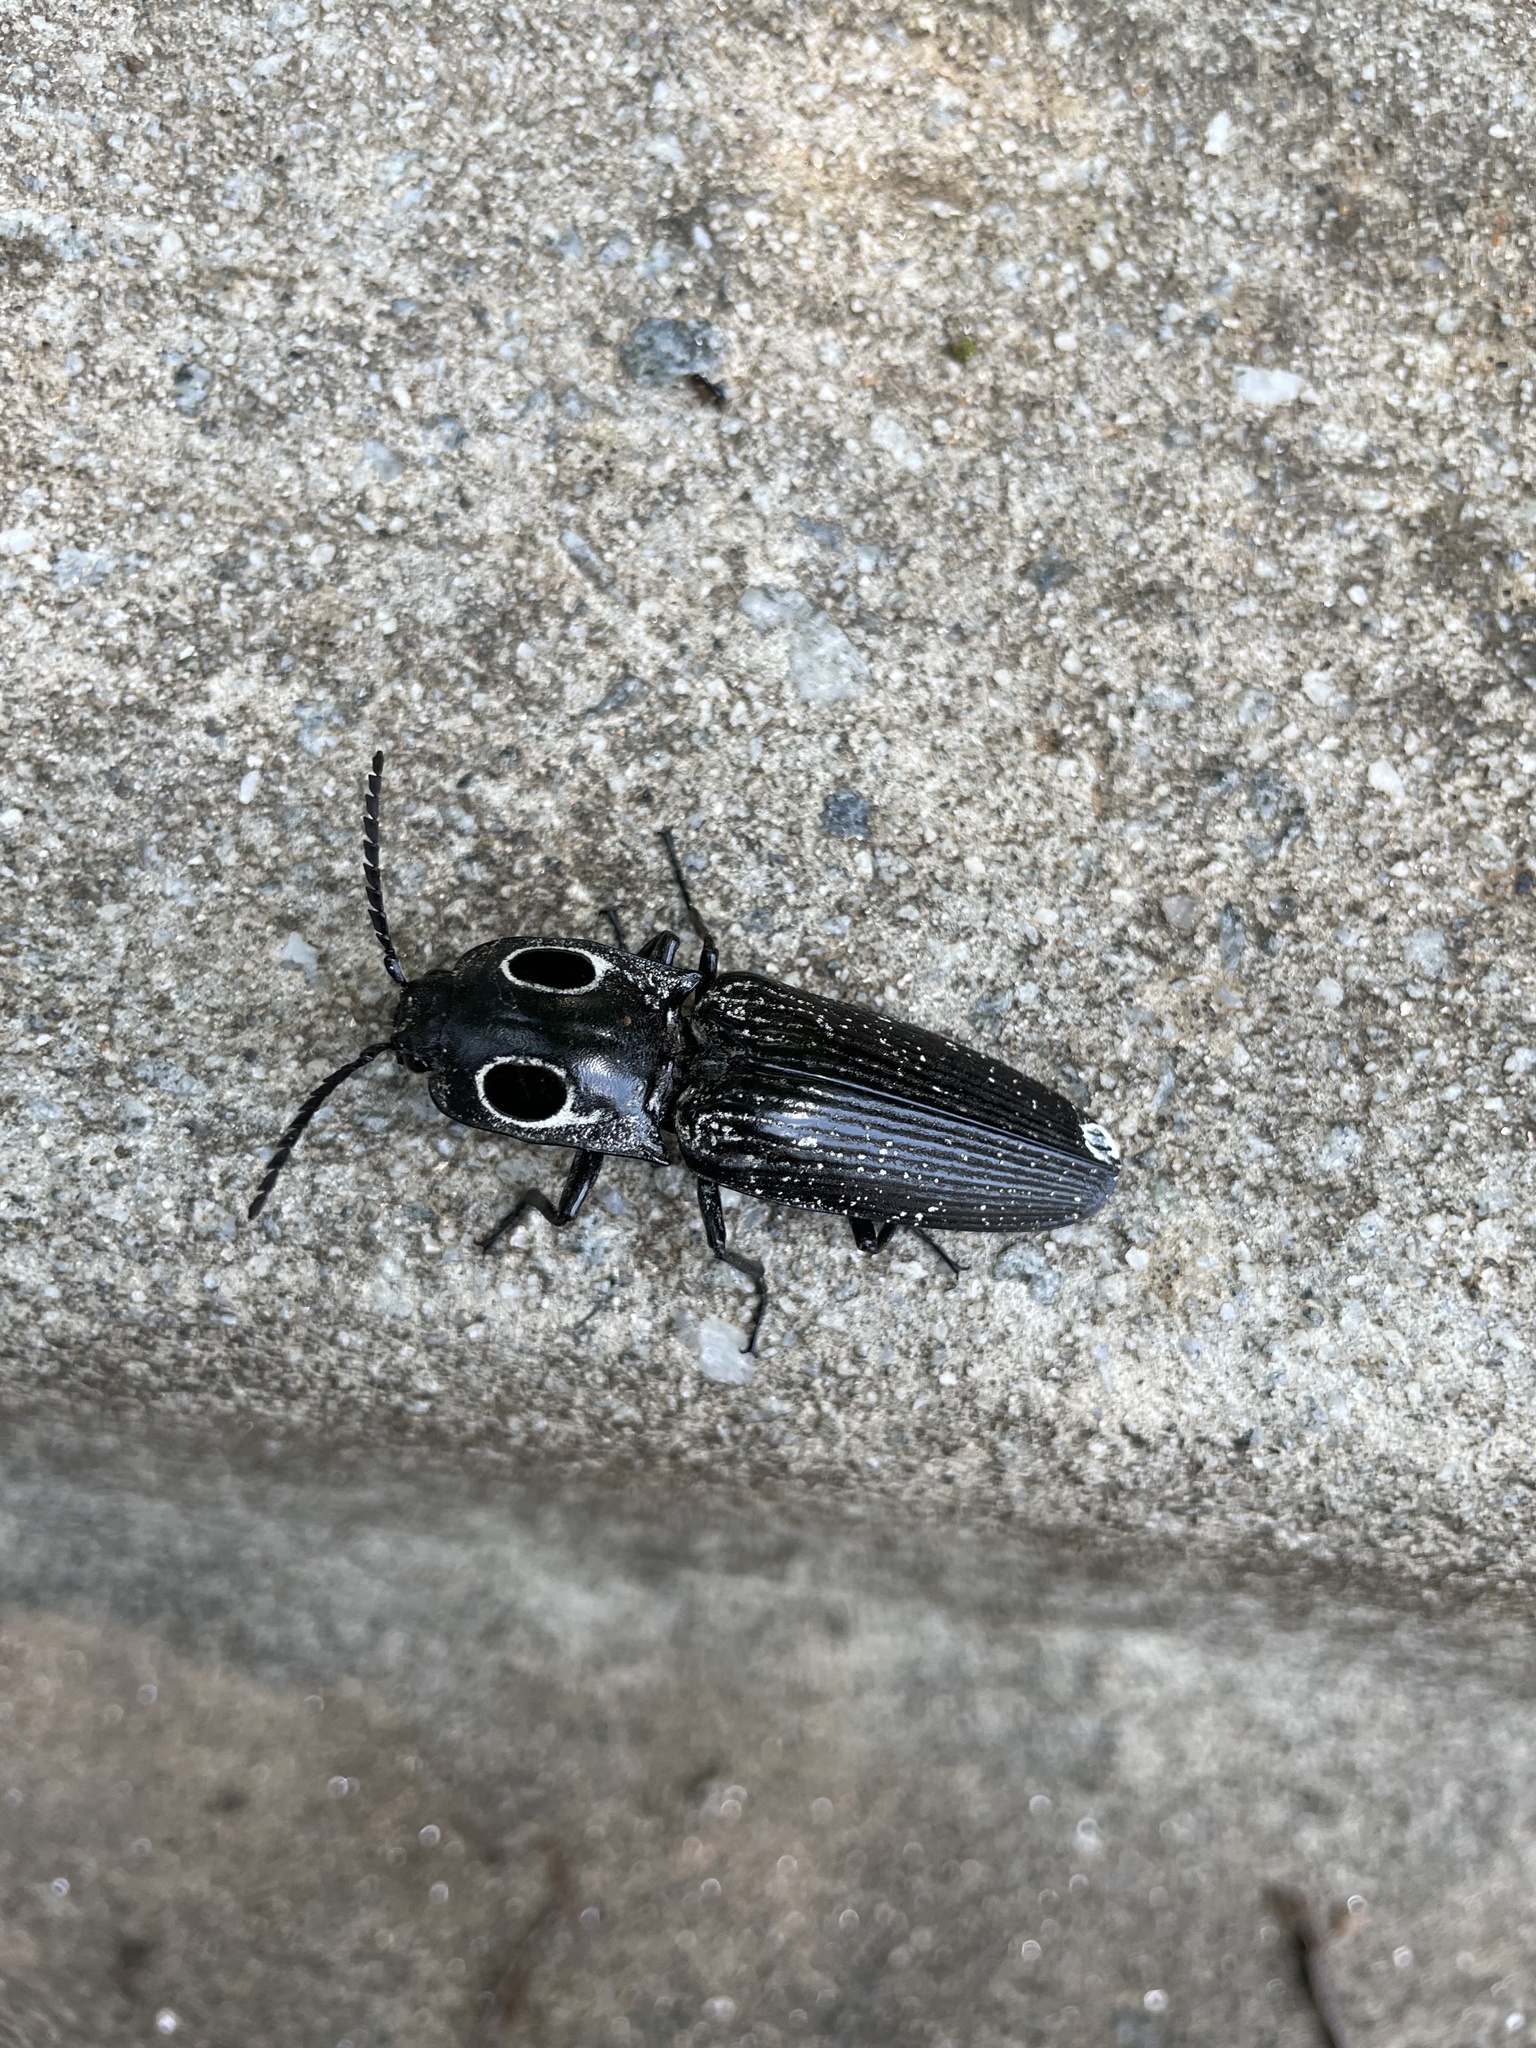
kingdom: Animalia
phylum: Arthropoda
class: Insecta
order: Coleoptera
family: Elateridae
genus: Alaus
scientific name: Alaus oculatus
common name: Eastern eyed click beetle
